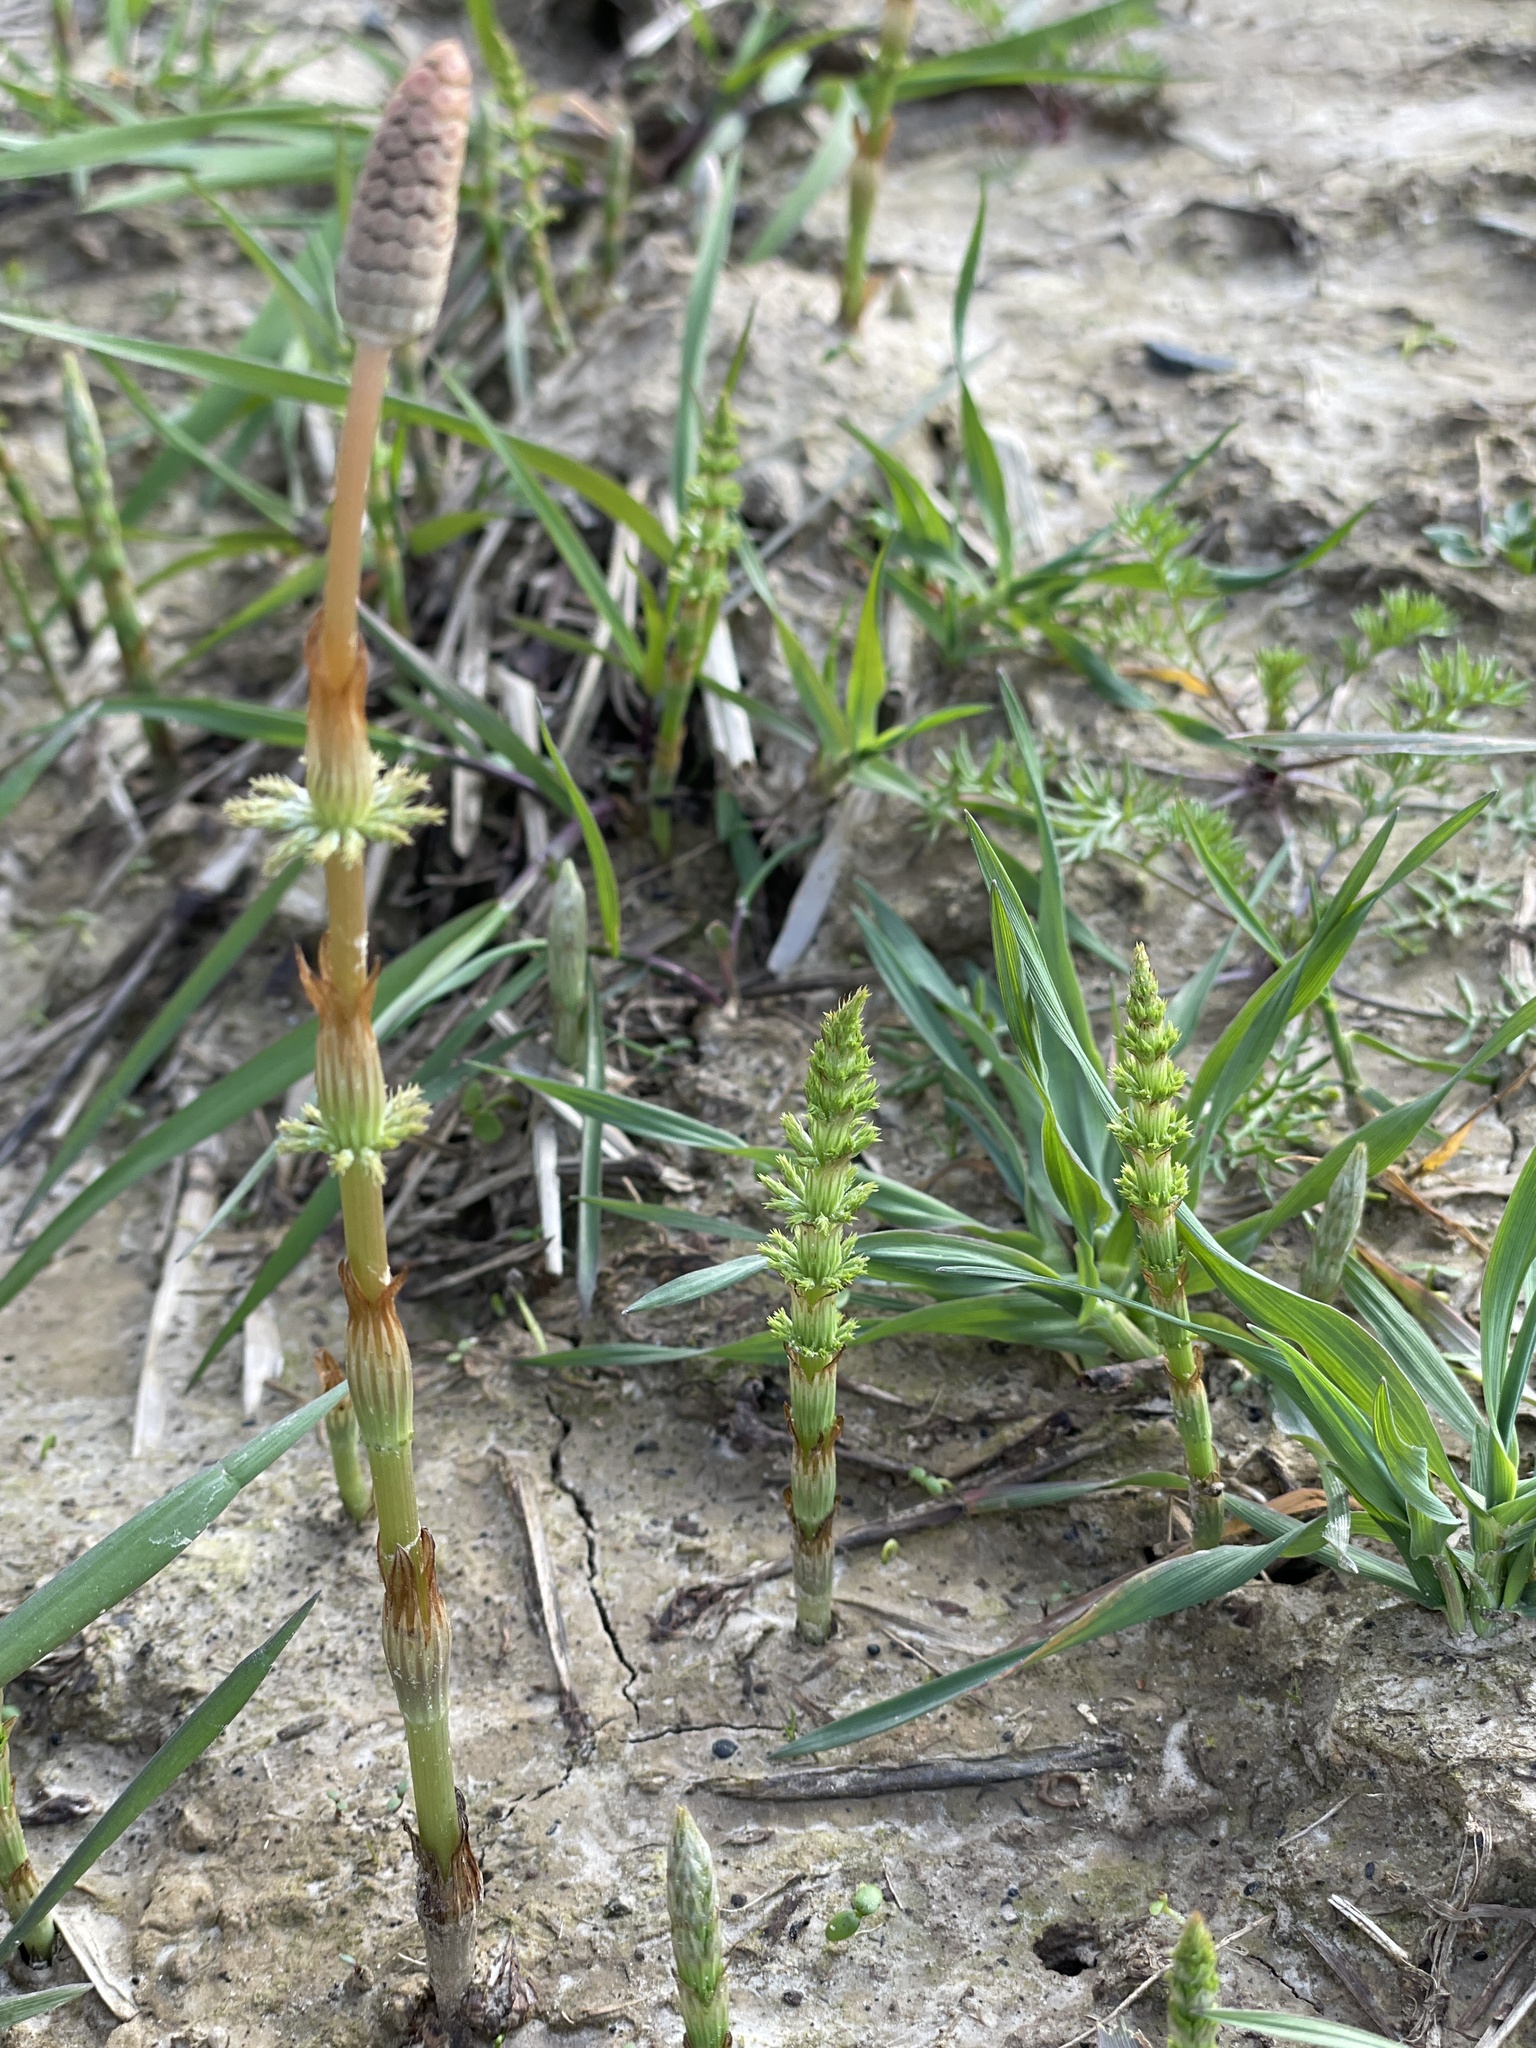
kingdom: Plantae
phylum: Tracheophyta
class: Polypodiopsida
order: Equisetales
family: Equisetaceae
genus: Equisetum
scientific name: Equisetum sylvaticum
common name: Wood horsetail
